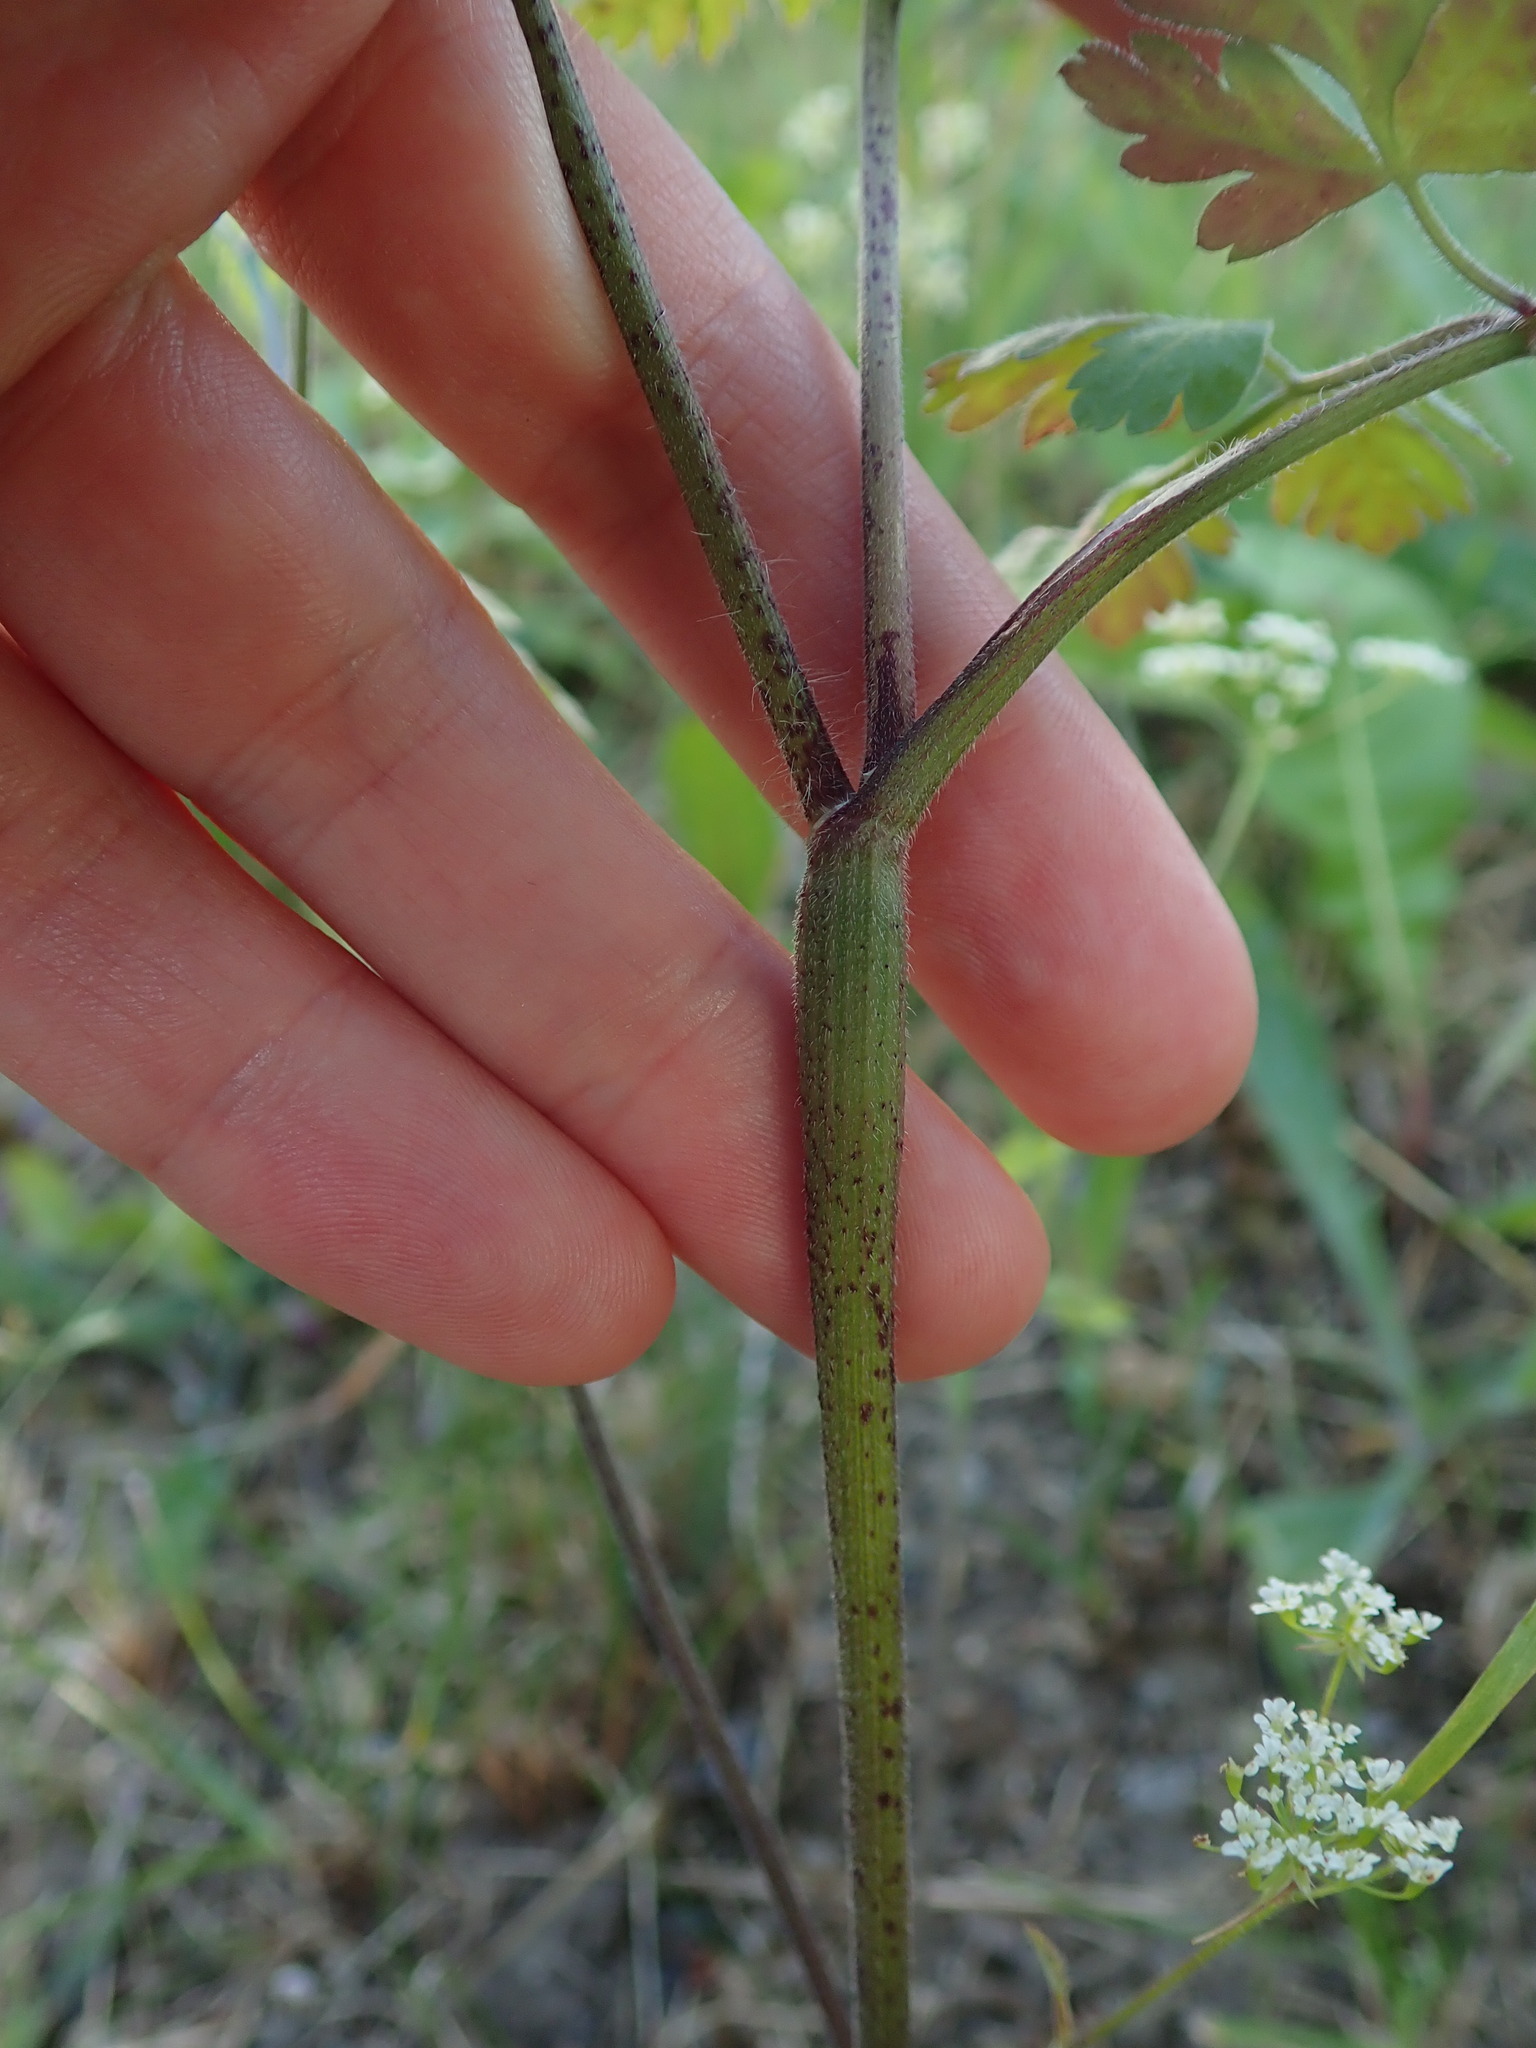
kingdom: Plantae
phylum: Tracheophyta
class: Magnoliopsida
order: Apiales
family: Apiaceae
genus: Chaerophyllum
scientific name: Chaerophyllum temulum
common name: Rough chervil
